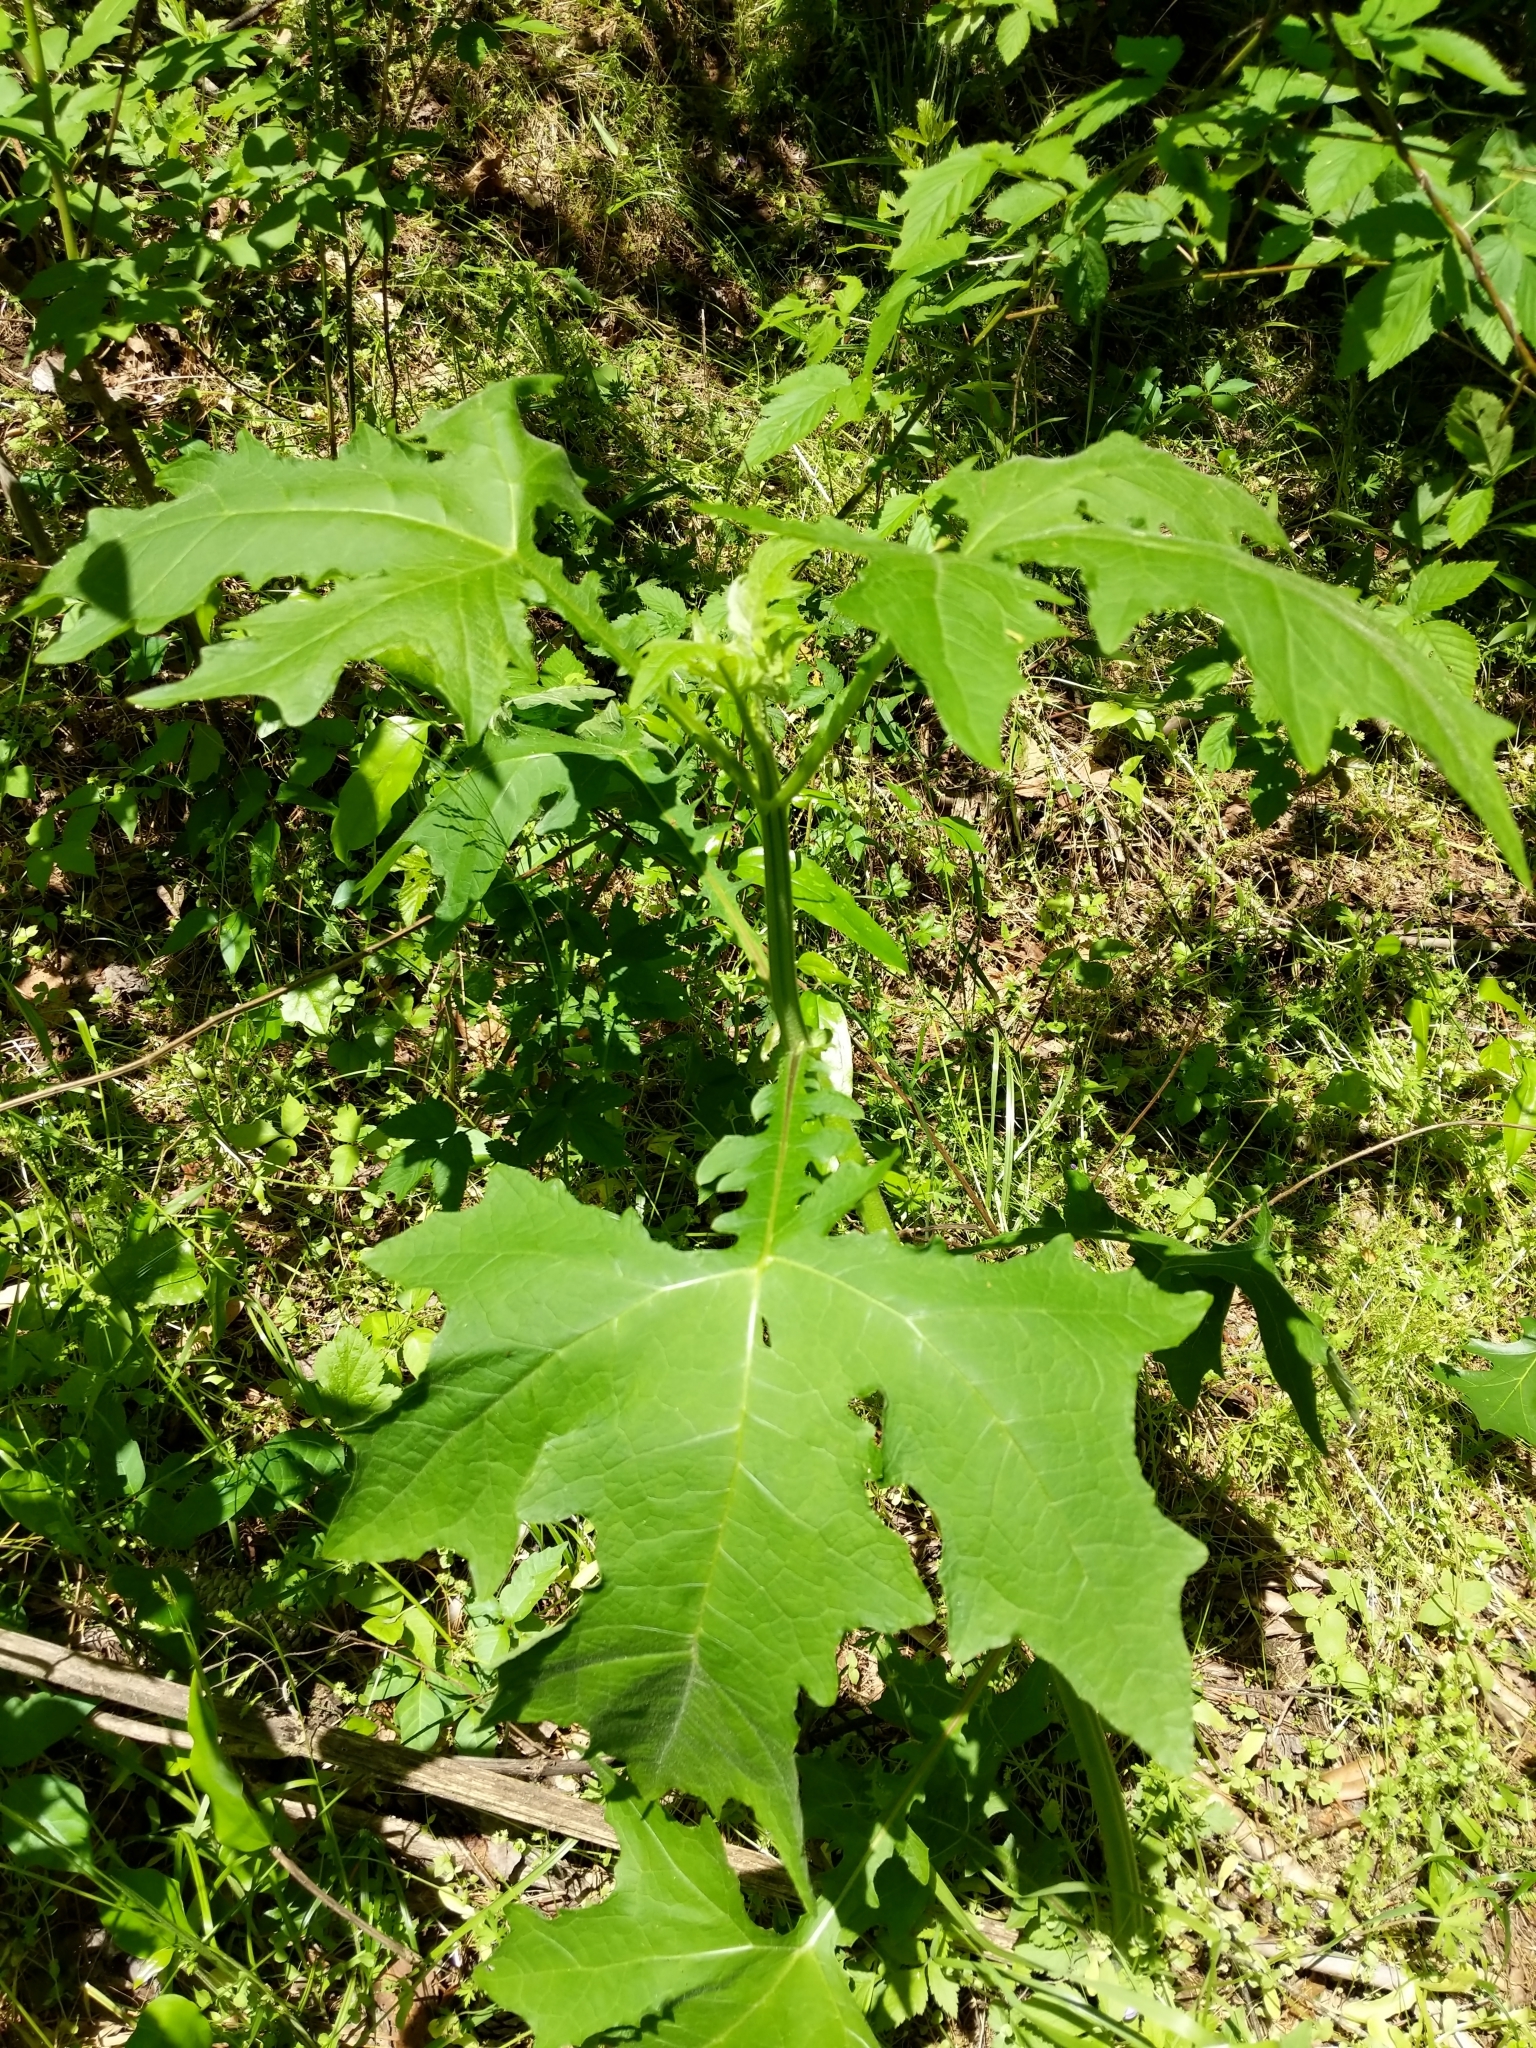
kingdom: Plantae
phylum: Tracheophyta
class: Magnoliopsida
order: Asterales
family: Asteraceae
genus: Smallanthus
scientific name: Smallanthus uvedalia
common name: Bear's-foot
